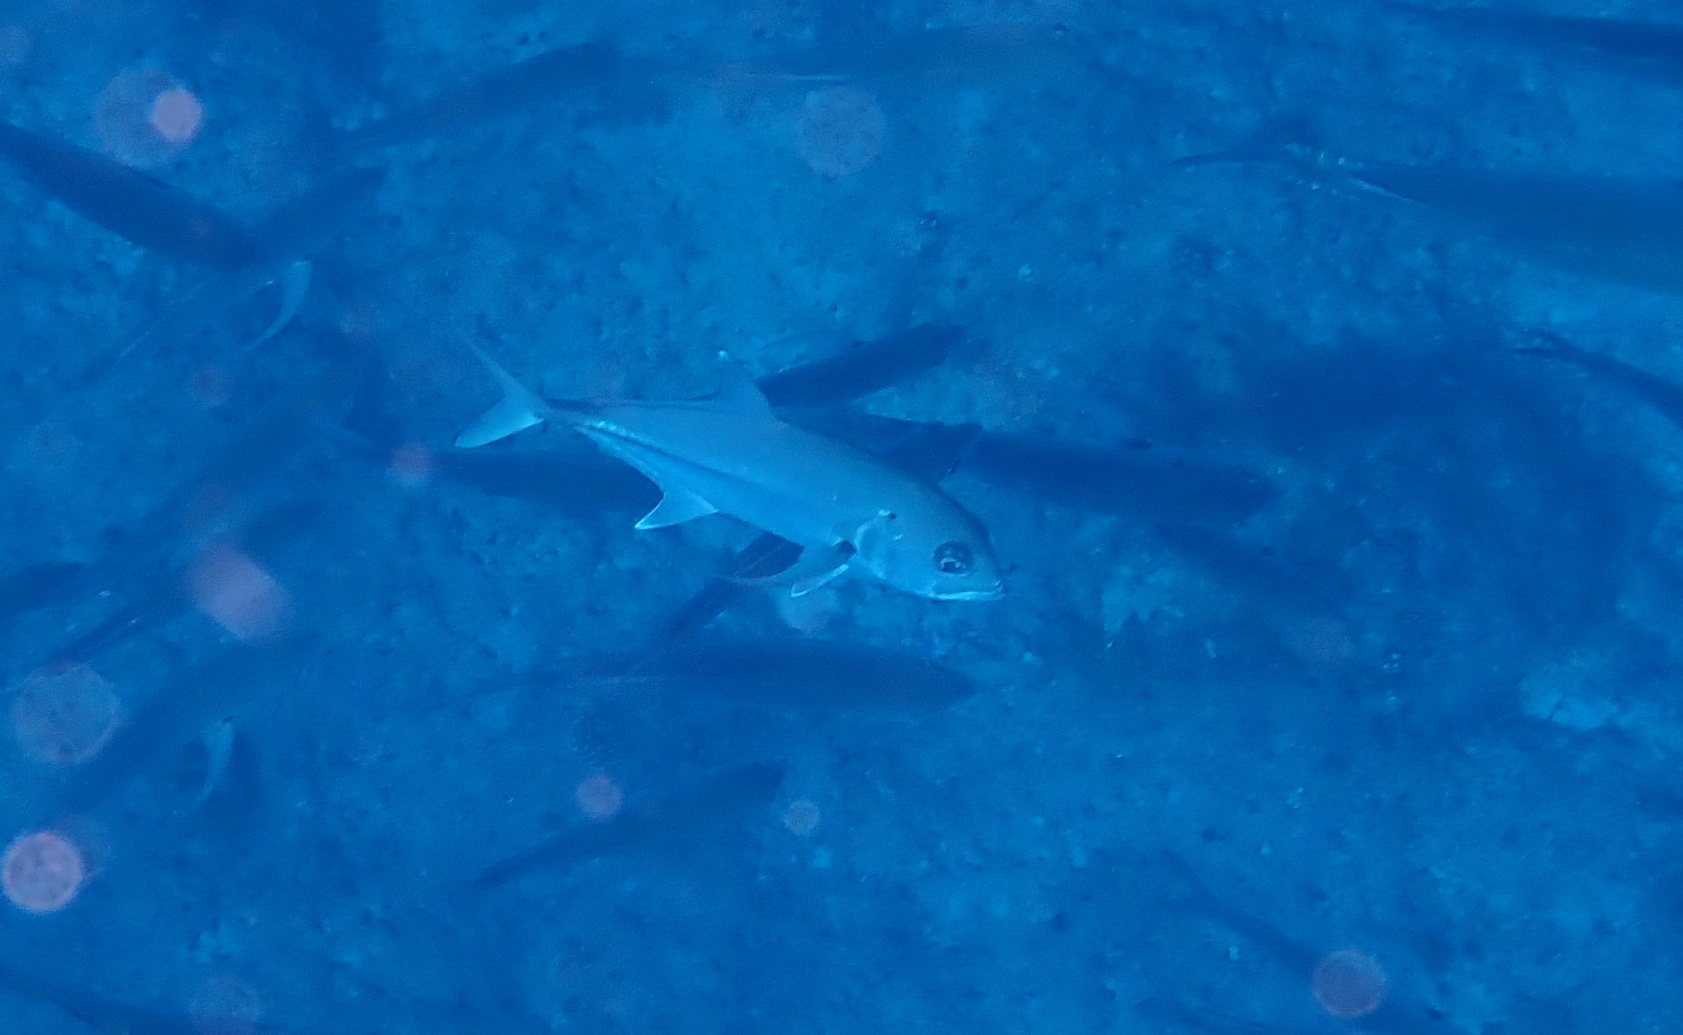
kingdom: Animalia
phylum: Chordata
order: Perciformes
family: Carangidae
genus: Caranx
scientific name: Caranx sexfasciatus
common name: Bigeye trevally
